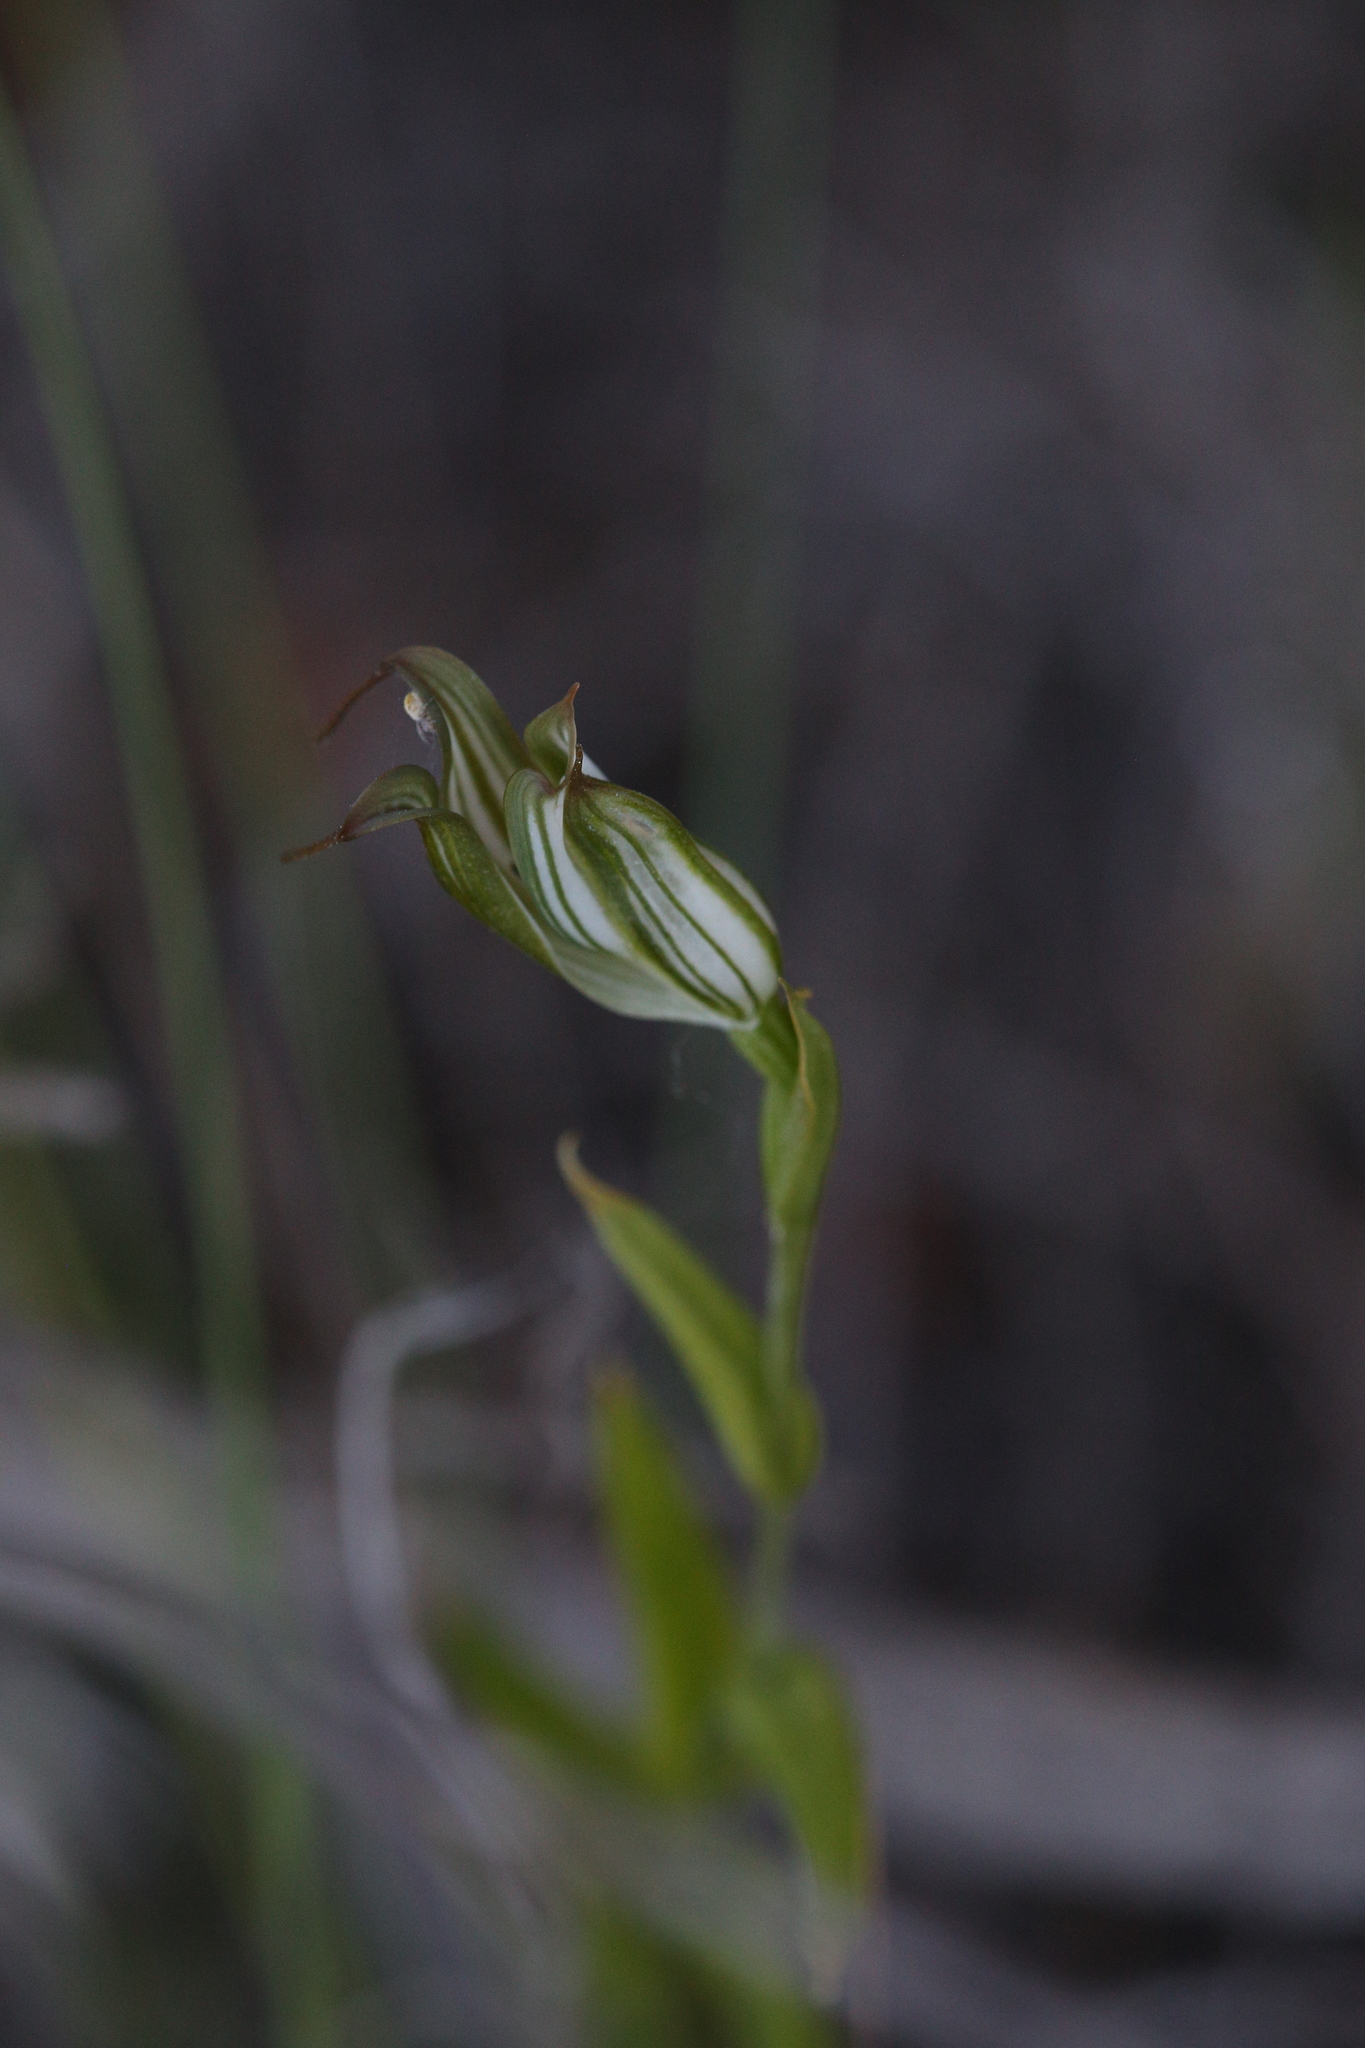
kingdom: Plantae
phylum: Tracheophyta
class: Liliopsida
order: Asparagales
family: Orchidaceae
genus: Pterostylis
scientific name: Pterostylis recurva
